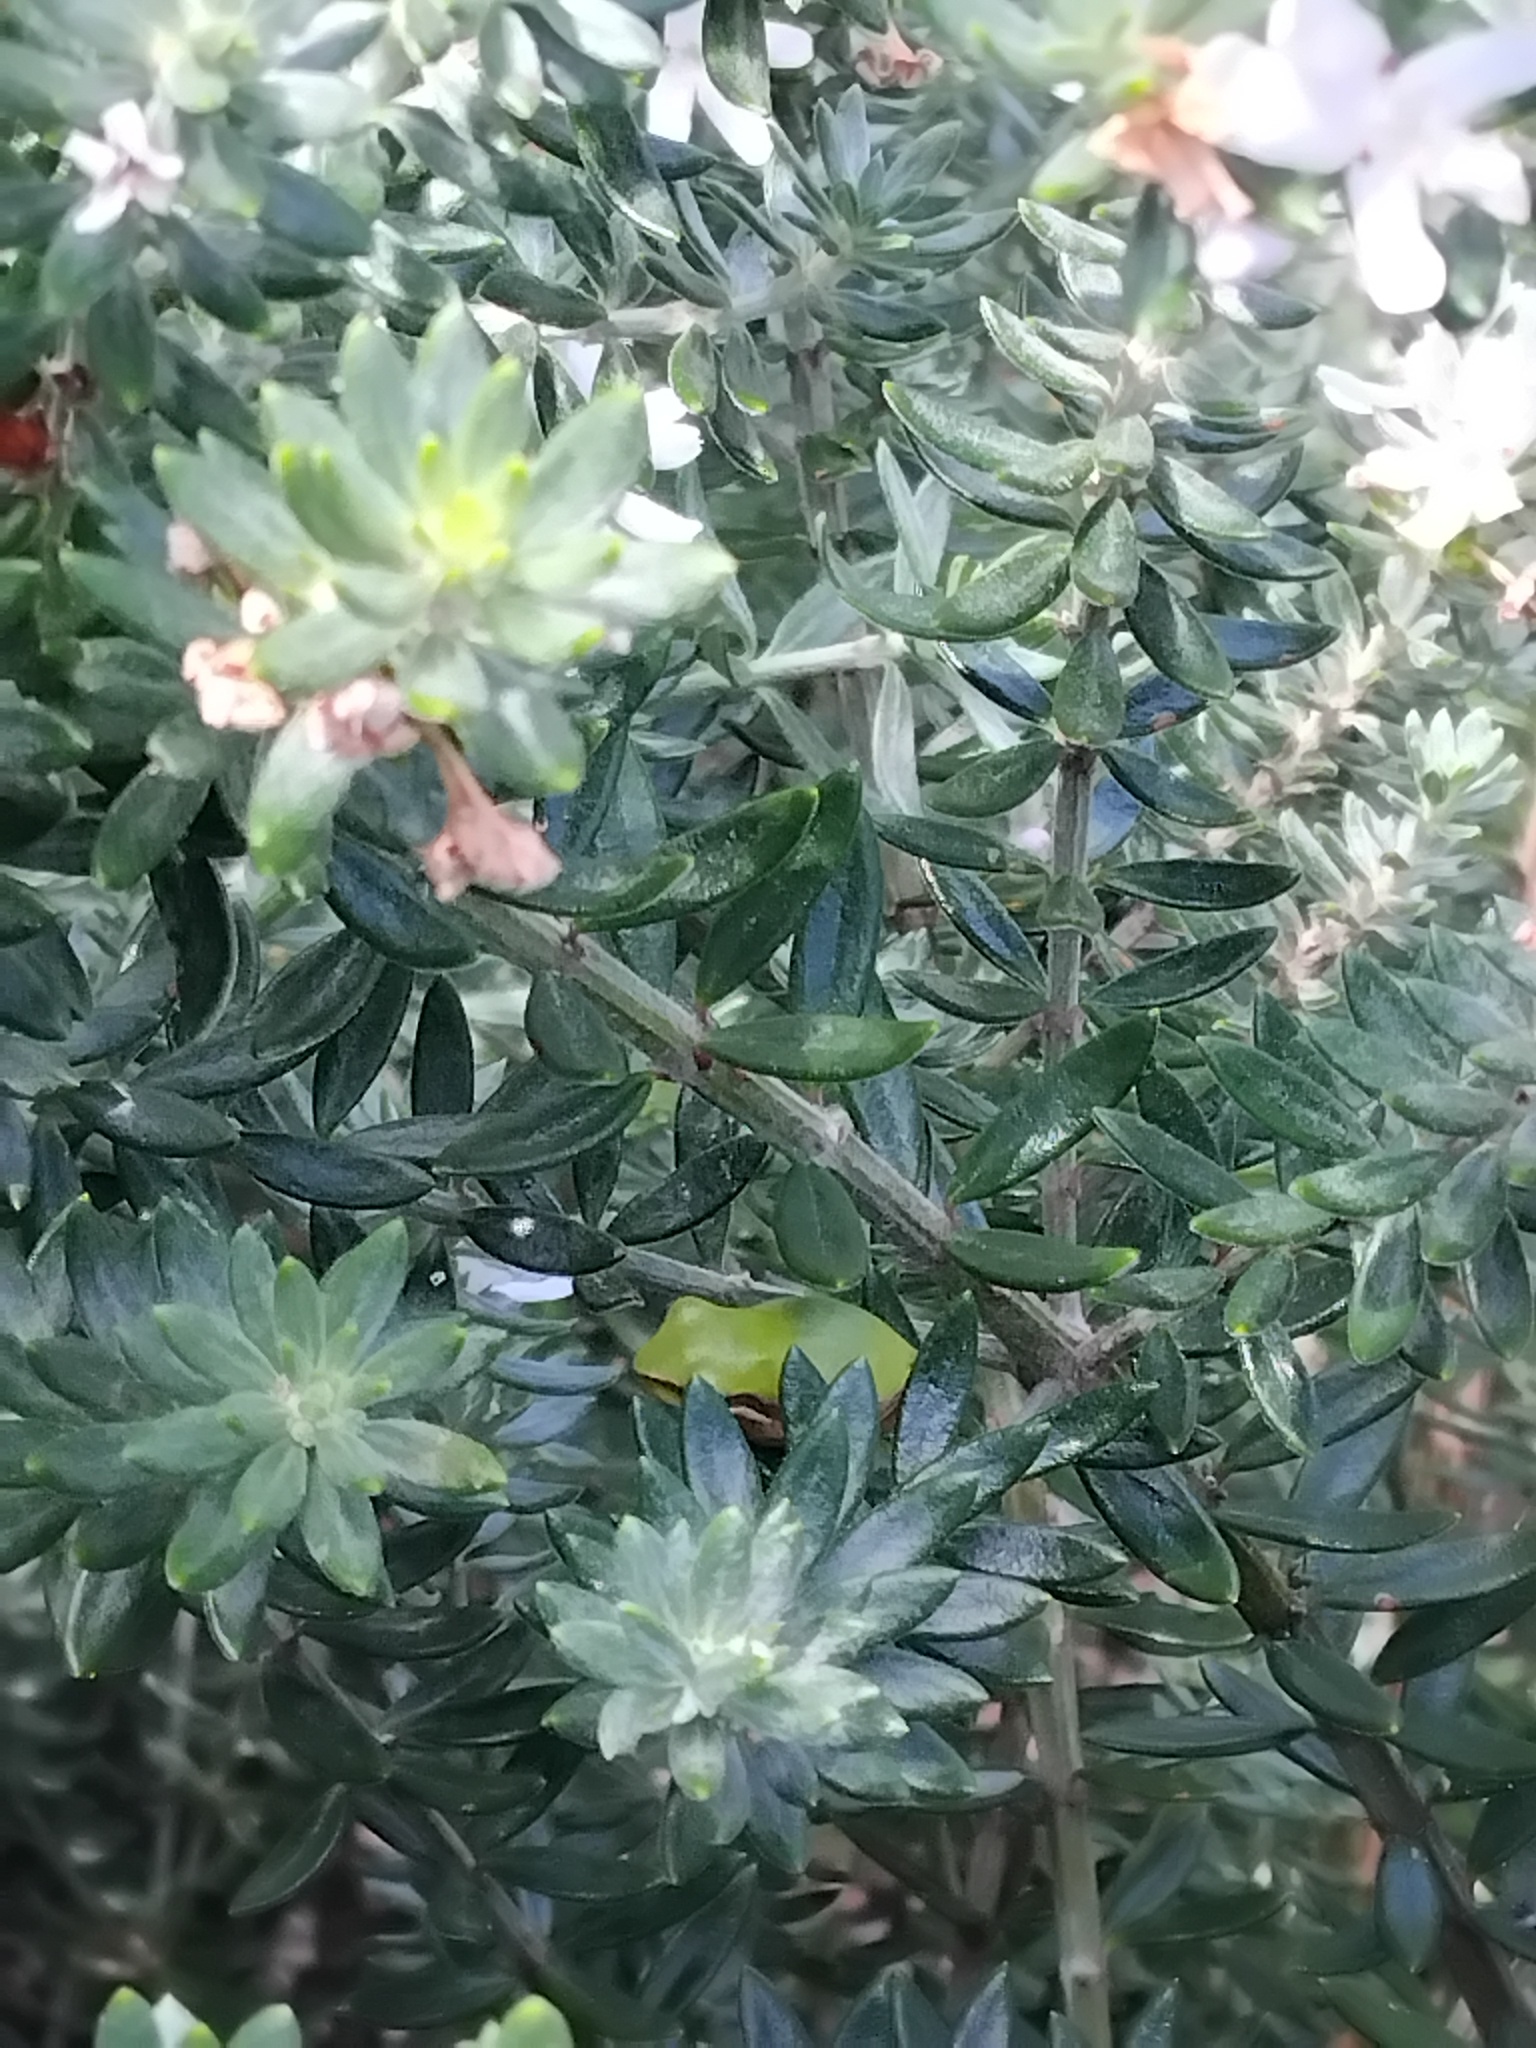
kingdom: Animalia
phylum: Chordata
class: Amphibia
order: Anura
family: Pelodryadidae
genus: Litoria
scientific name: Litoria fallax
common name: Eastern dwarf treefrog
